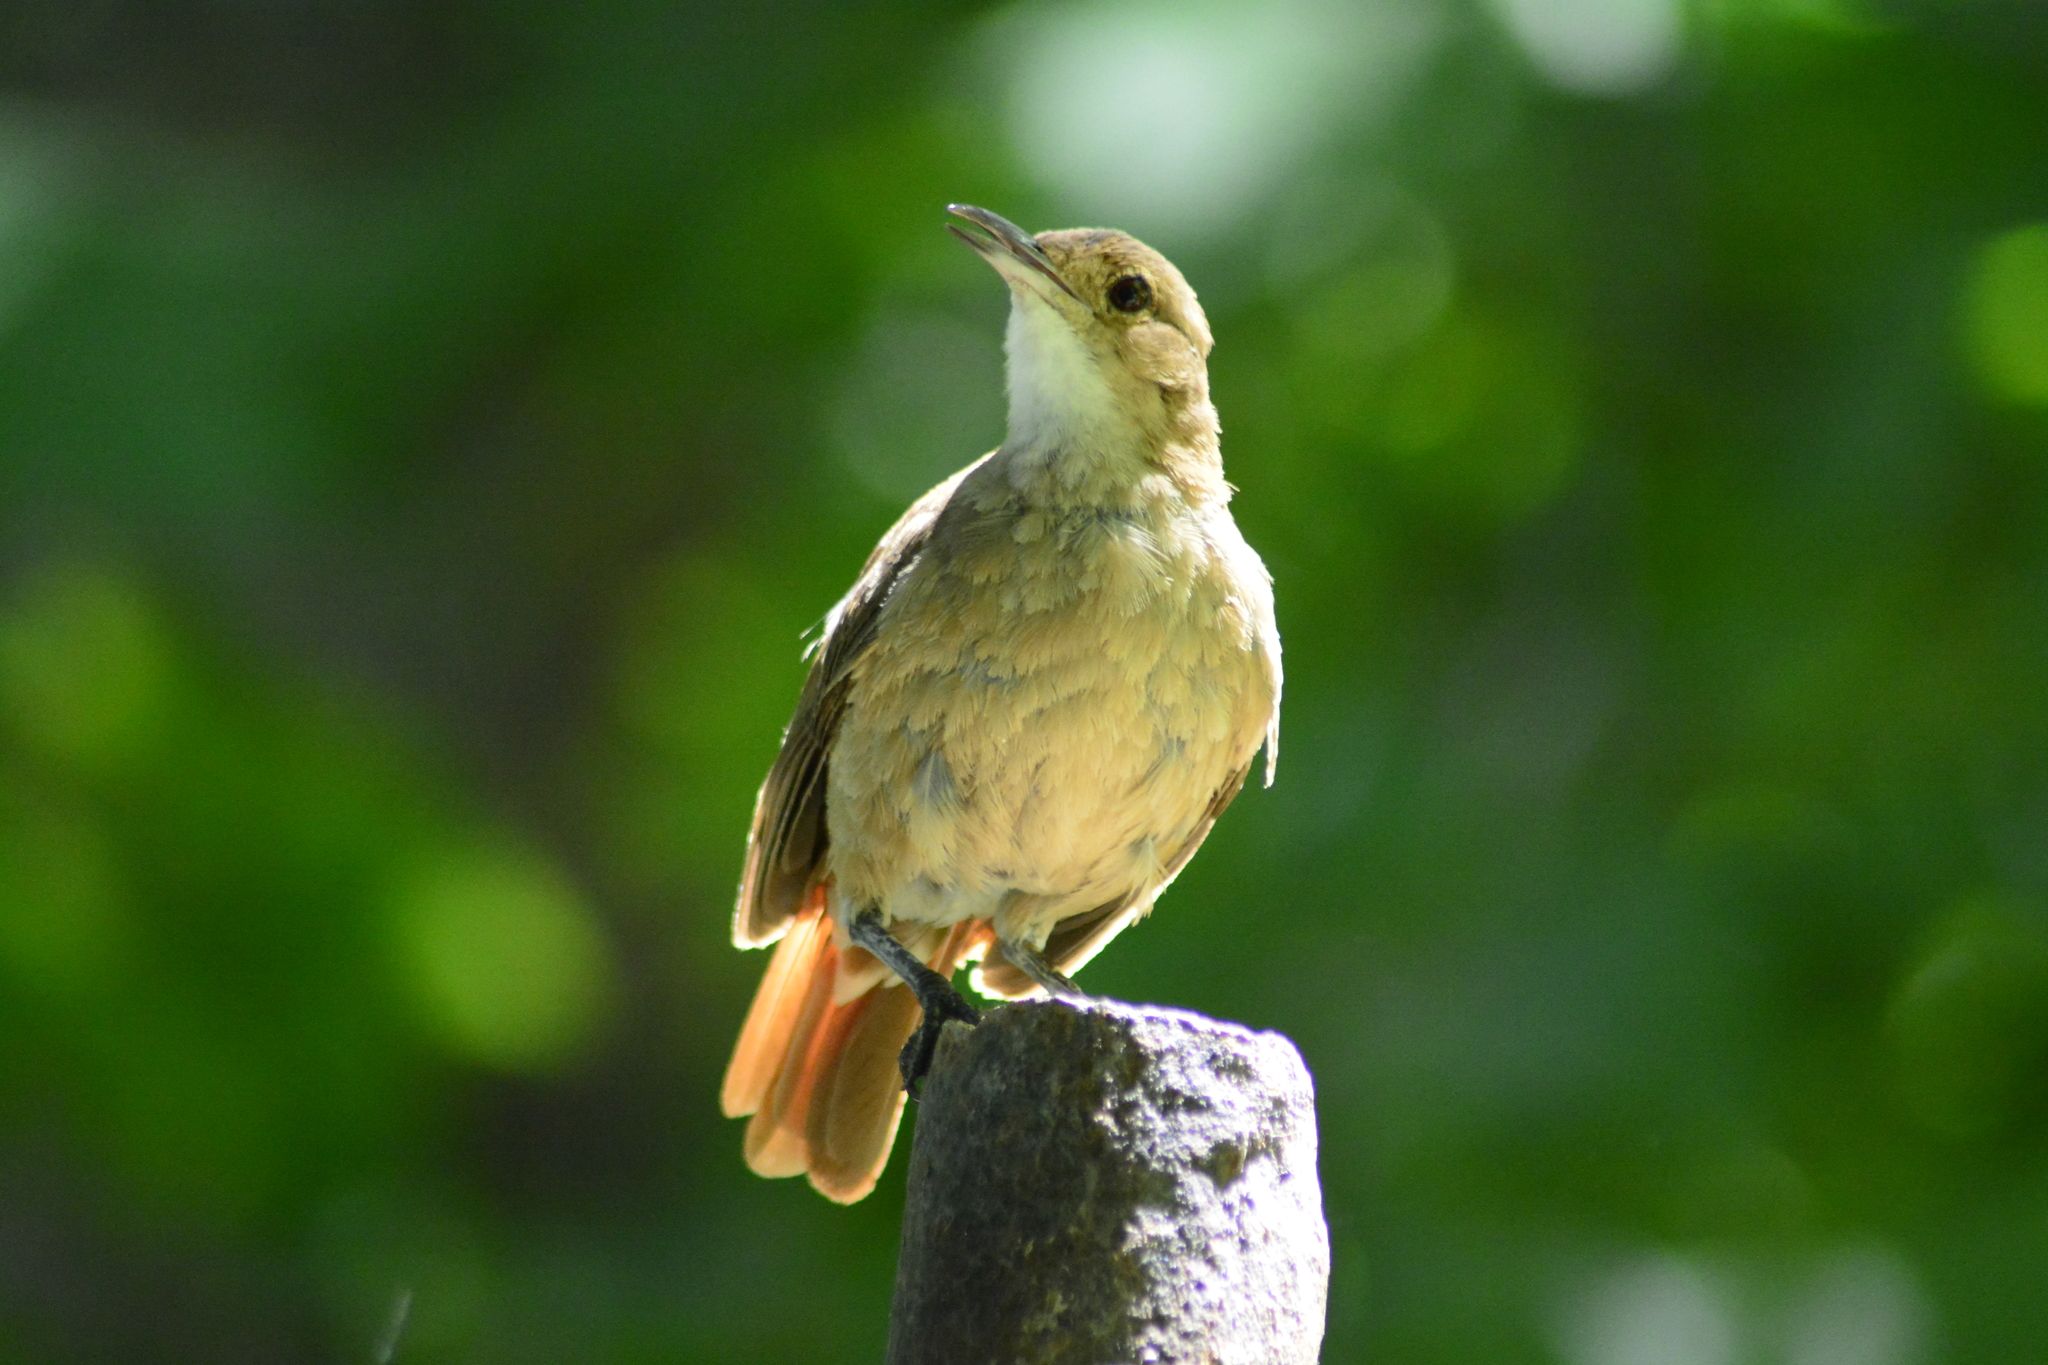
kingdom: Animalia
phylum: Chordata
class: Aves
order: Passeriformes
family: Furnariidae
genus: Furnarius
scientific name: Furnarius rufus
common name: Rufous hornero
